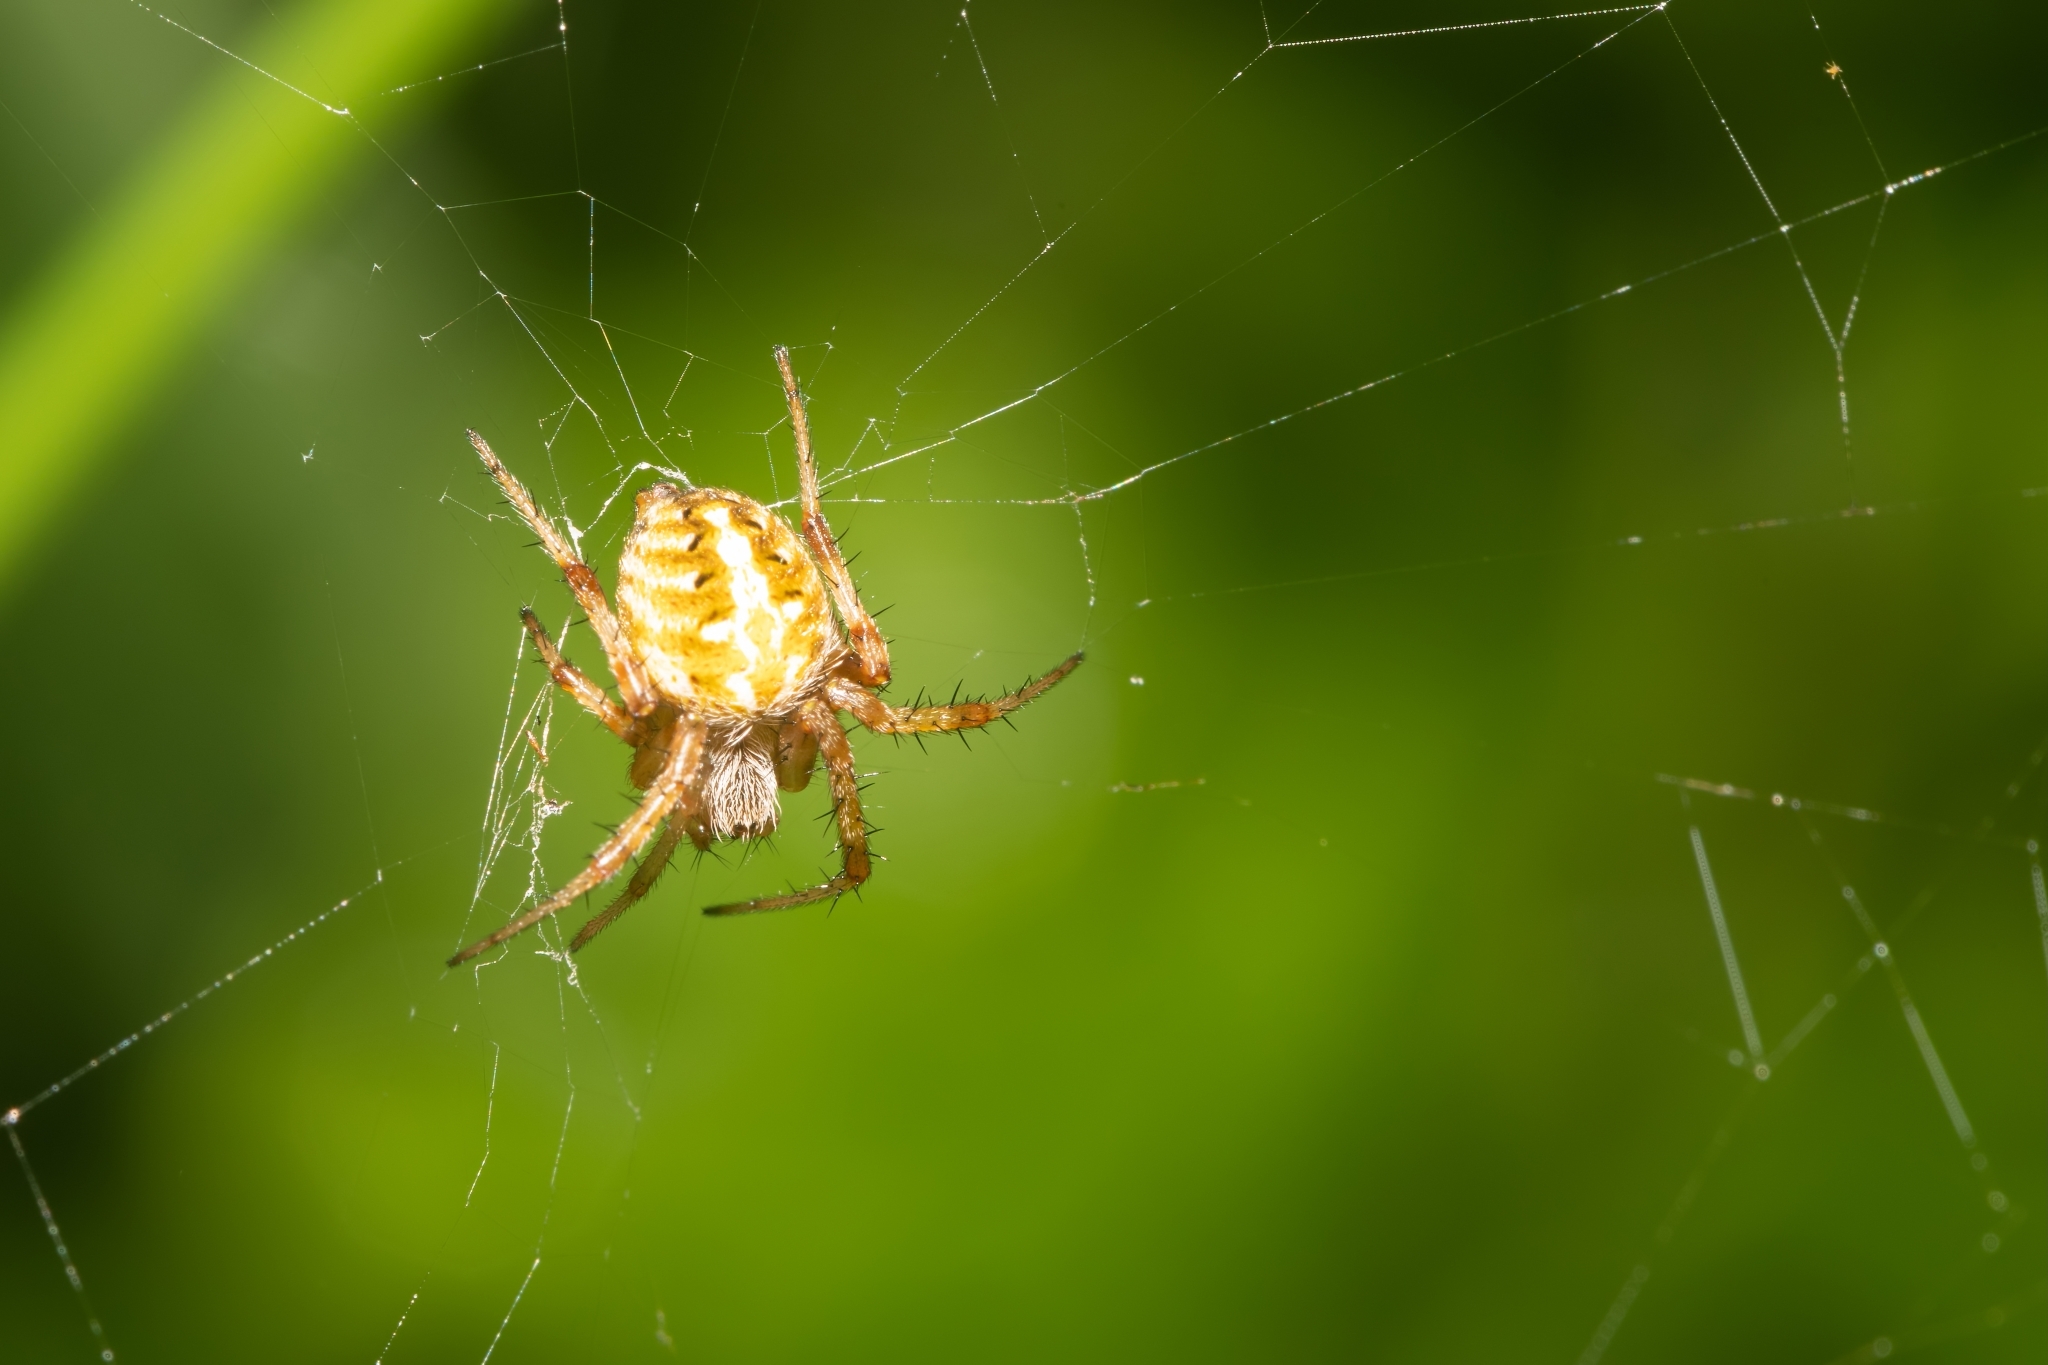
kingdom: Animalia
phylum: Arthropoda
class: Arachnida
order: Araneae
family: Araneidae
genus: Neoscona
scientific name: Neoscona arabesca
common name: Orb weavers
